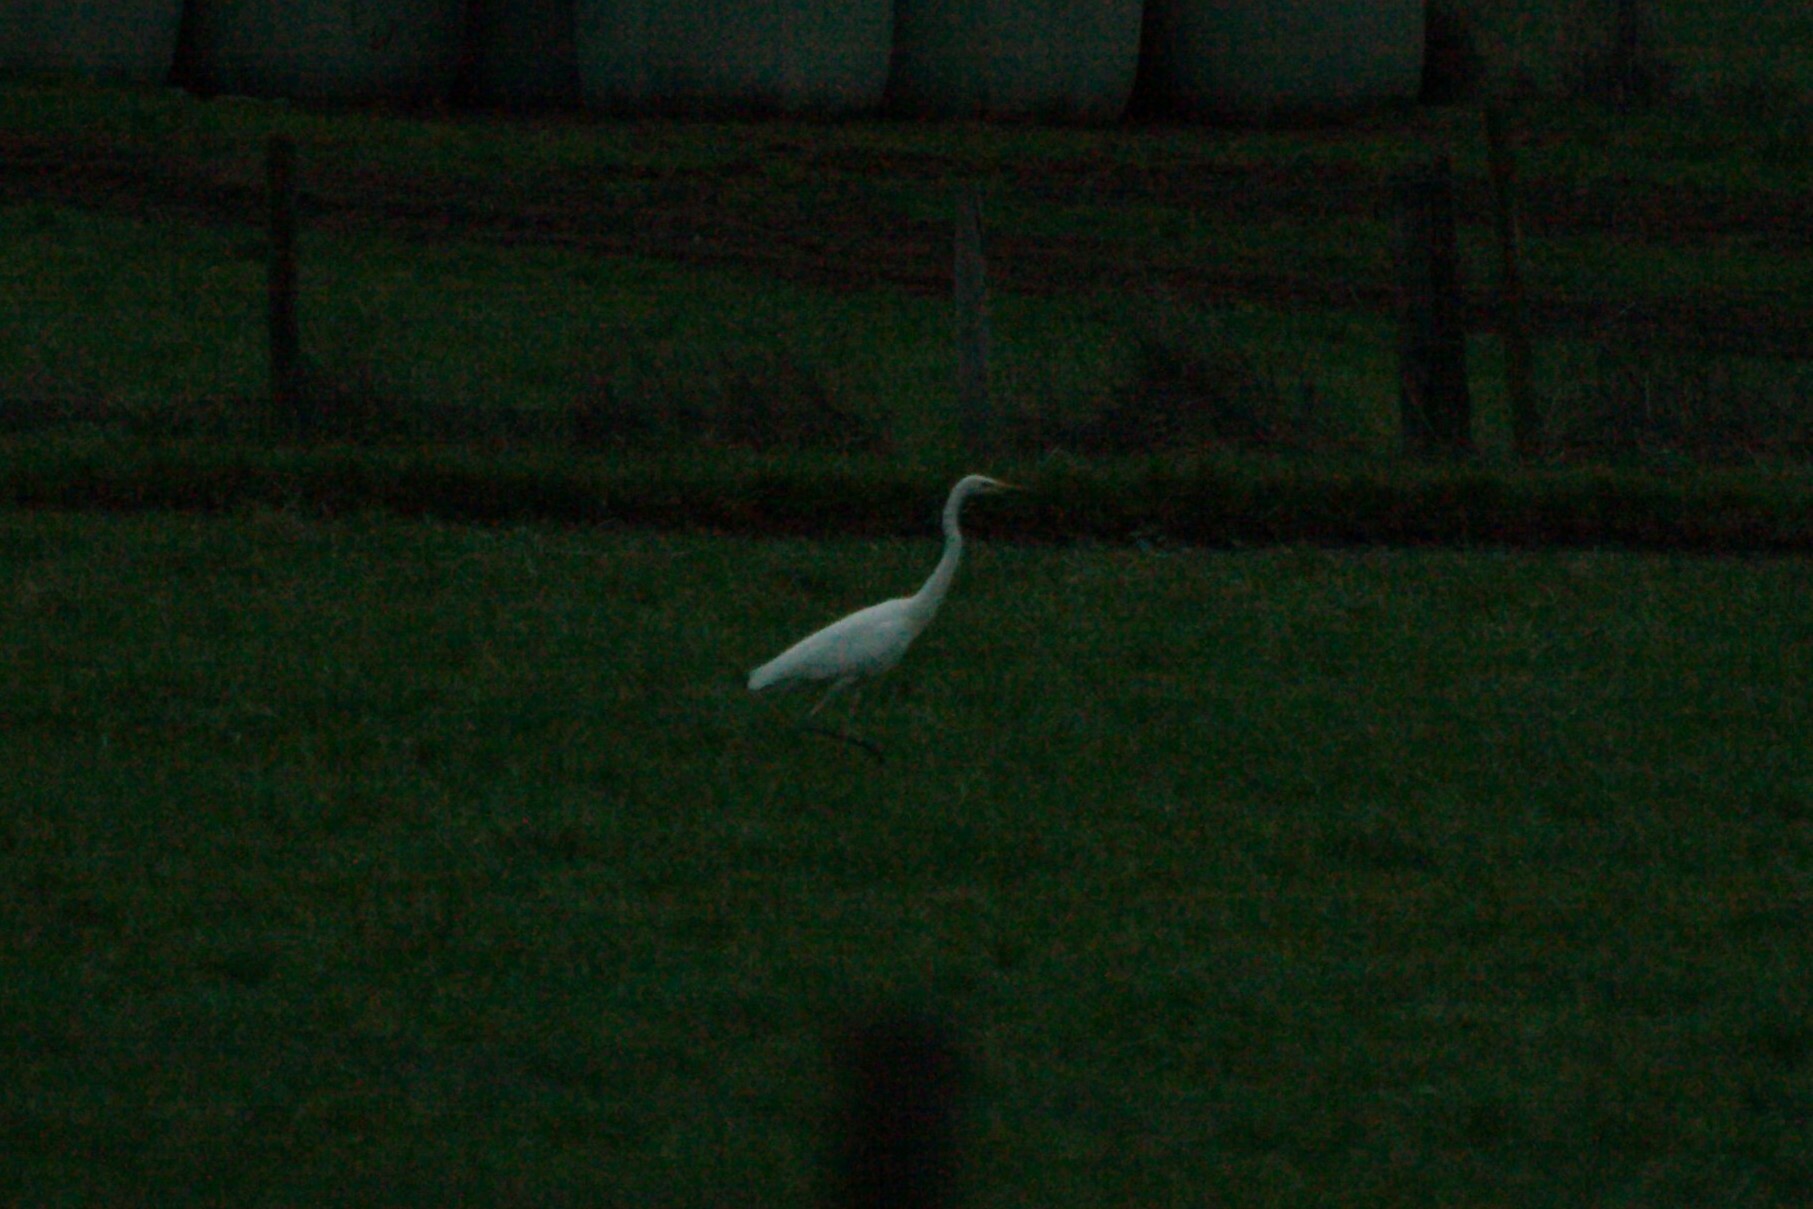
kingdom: Animalia
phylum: Chordata
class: Aves
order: Pelecaniformes
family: Ardeidae
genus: Ardea
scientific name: Ardea alba
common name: Great egret
